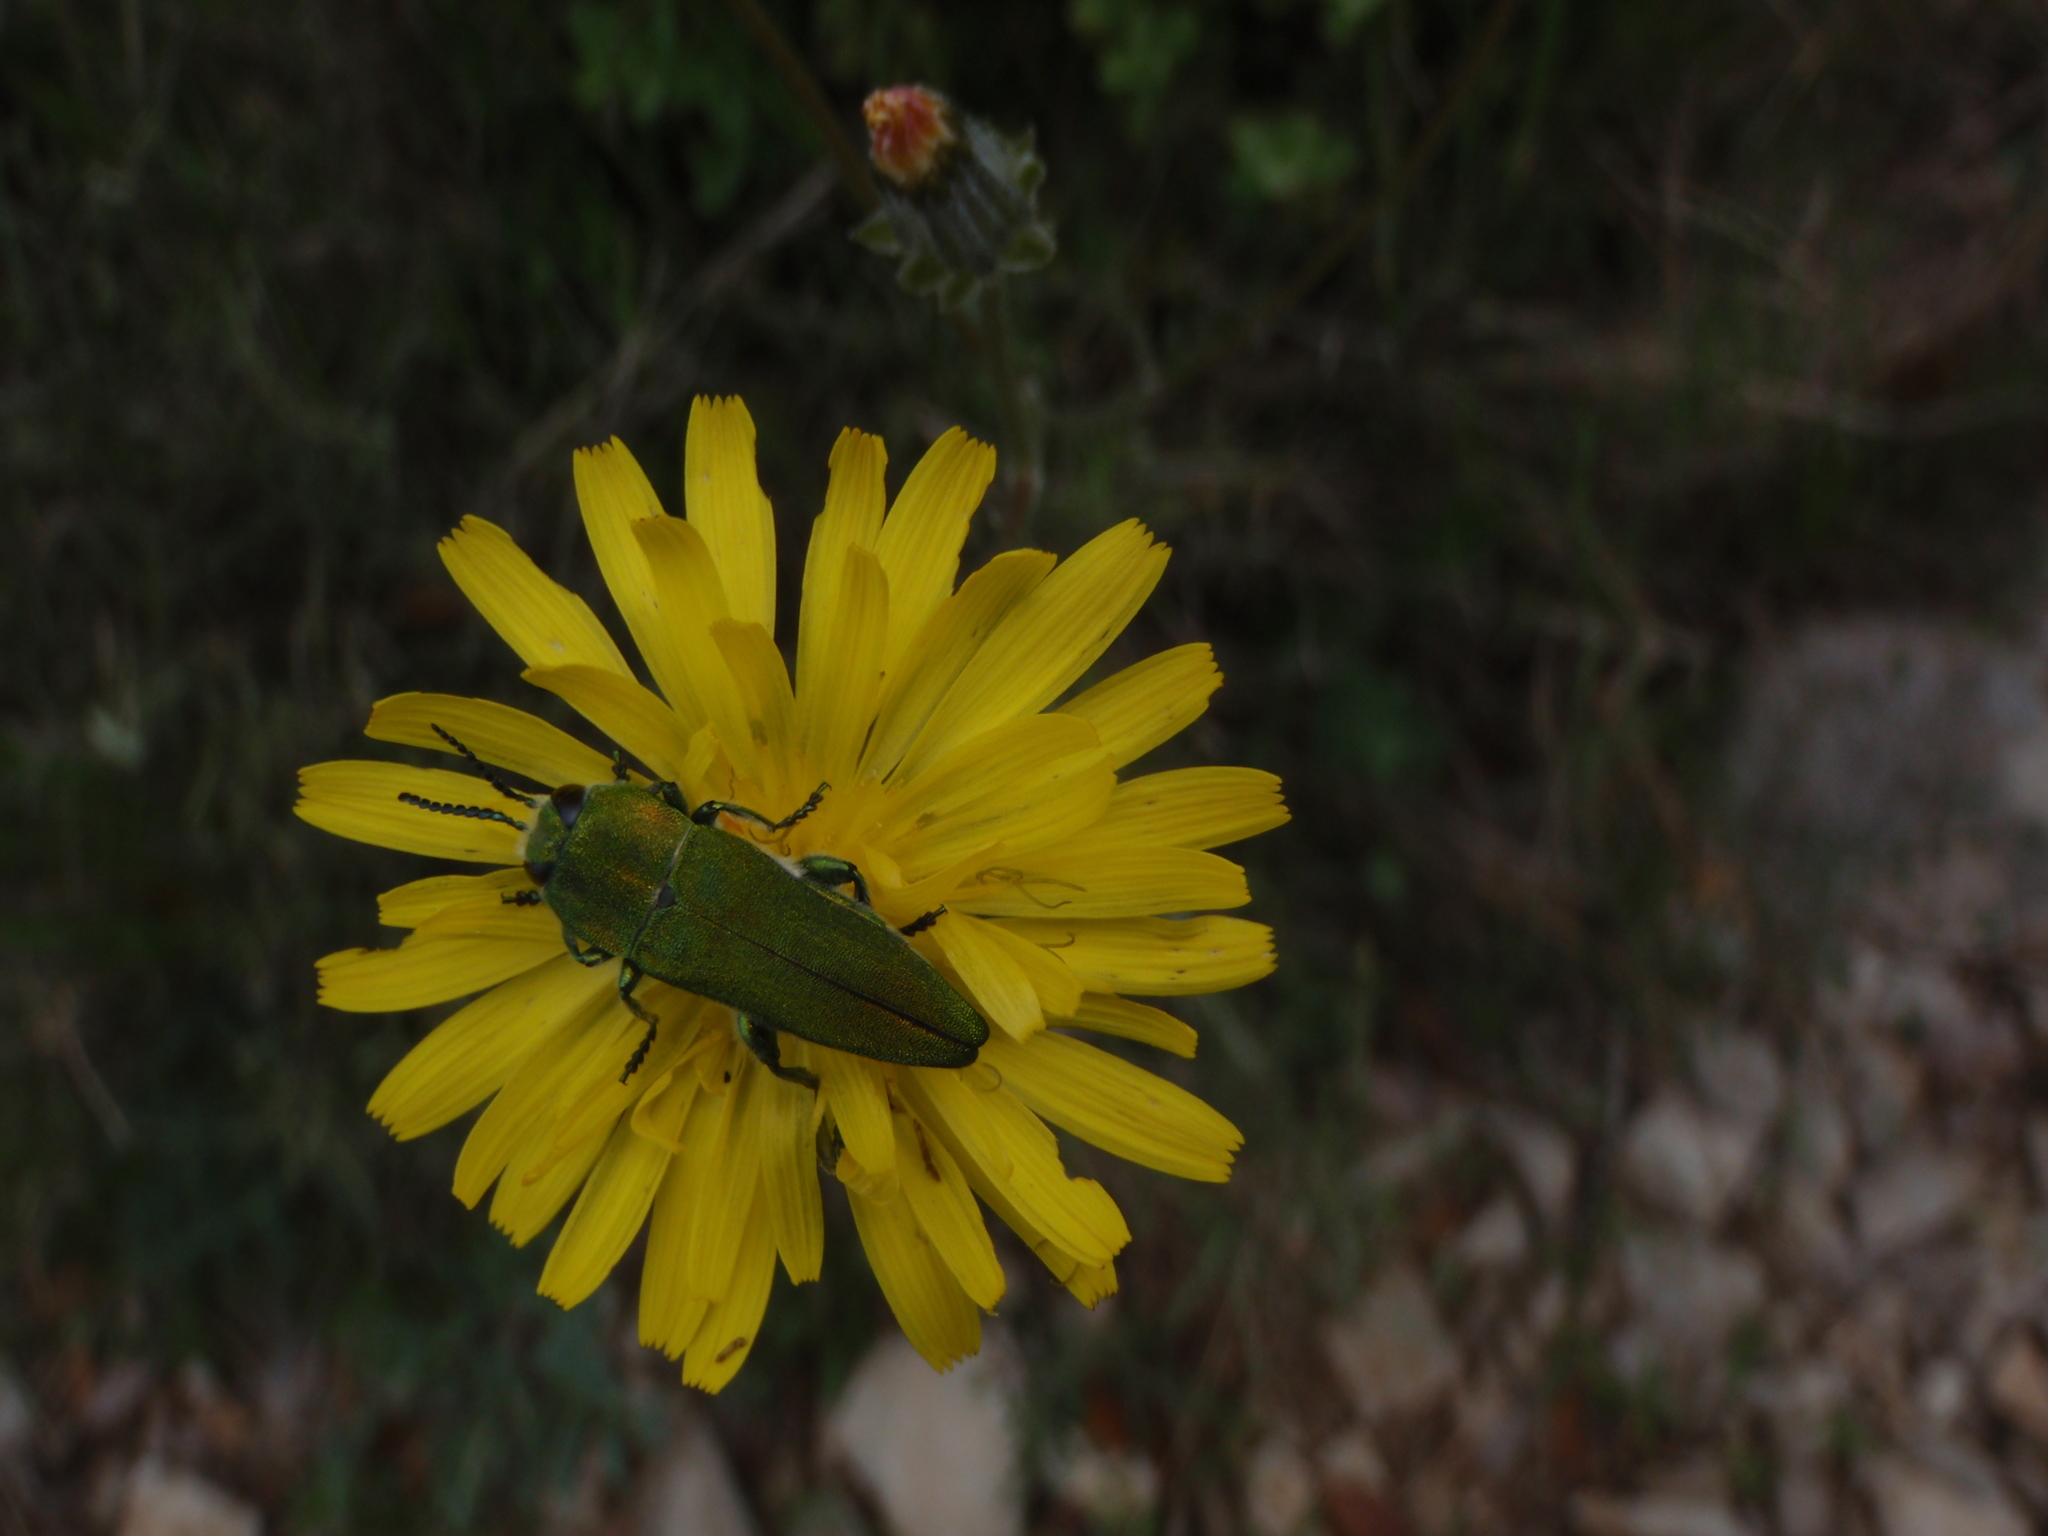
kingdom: Animalia
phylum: Arthropoda
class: Insecta
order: Coleoptera
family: Buprestidae
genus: Anthaxia
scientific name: Anthaxia hungarica
